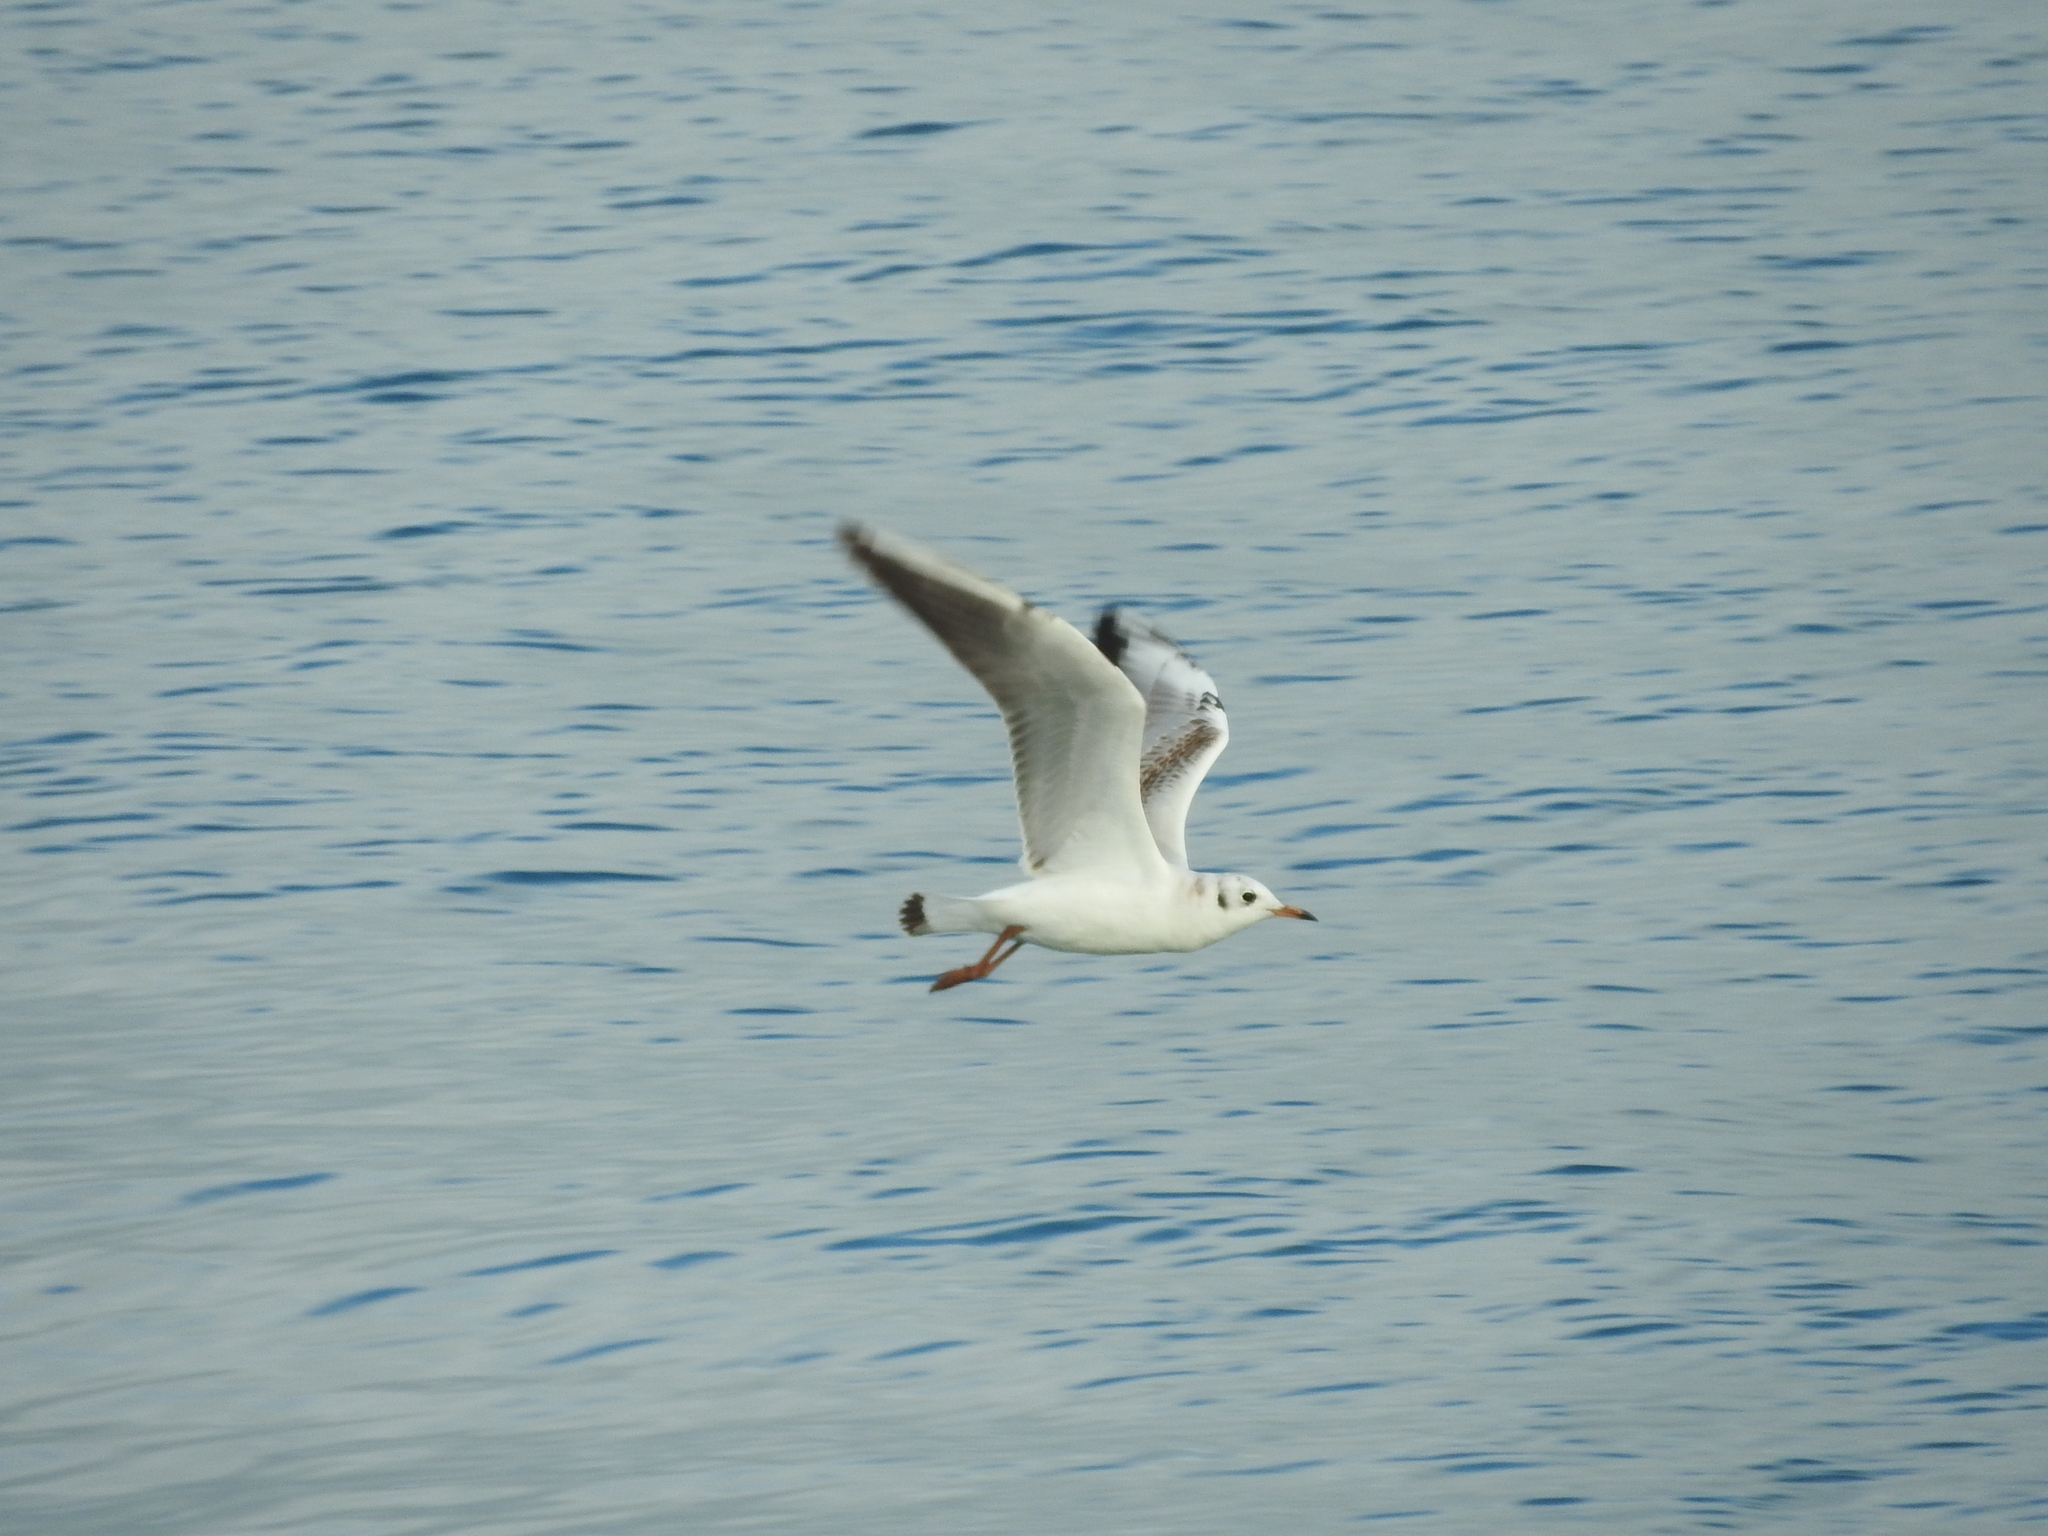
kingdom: Animalia
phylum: Chordata
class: Aves
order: Charadriiformes
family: Laridae
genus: Chroicocephalus
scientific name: Chroicocephalus ridibundus
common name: Black-headed gull
